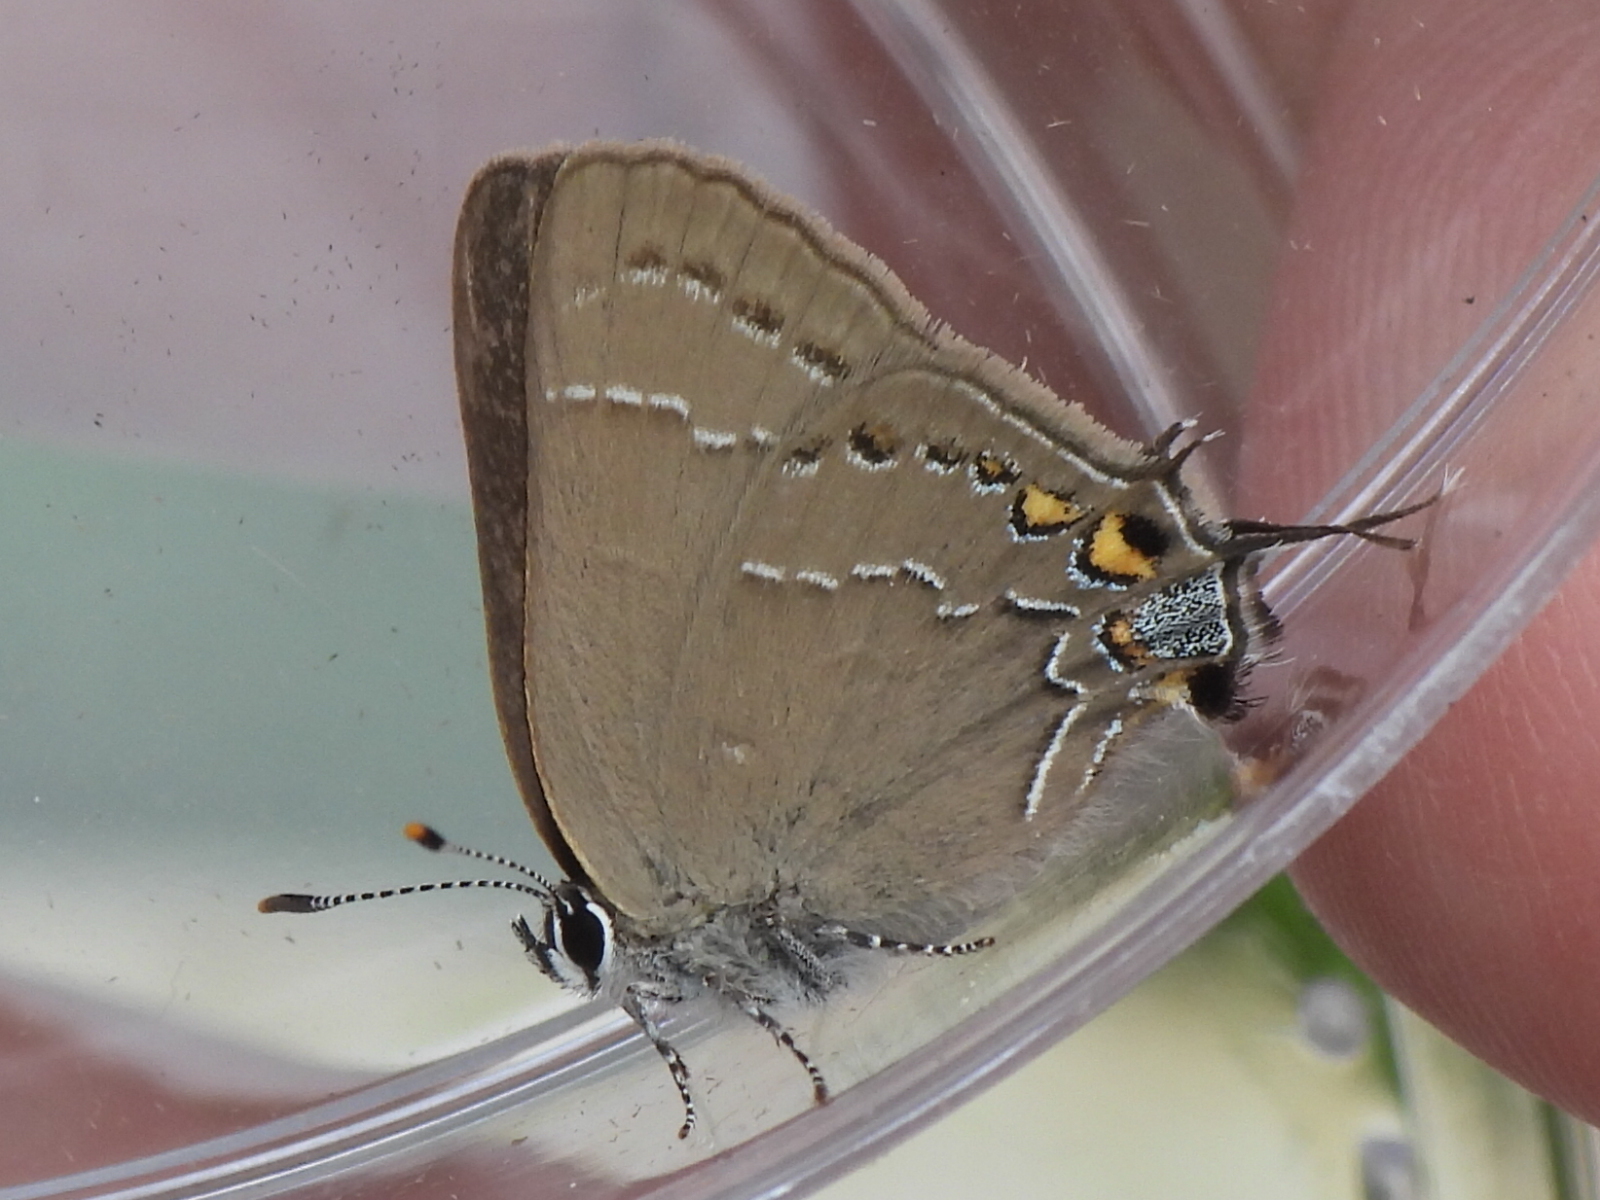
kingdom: Animalia
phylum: Arthropoda
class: Insecta
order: Lepidoptera
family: Lycaenidae
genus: Fixsenia
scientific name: Fixsenia favonius
